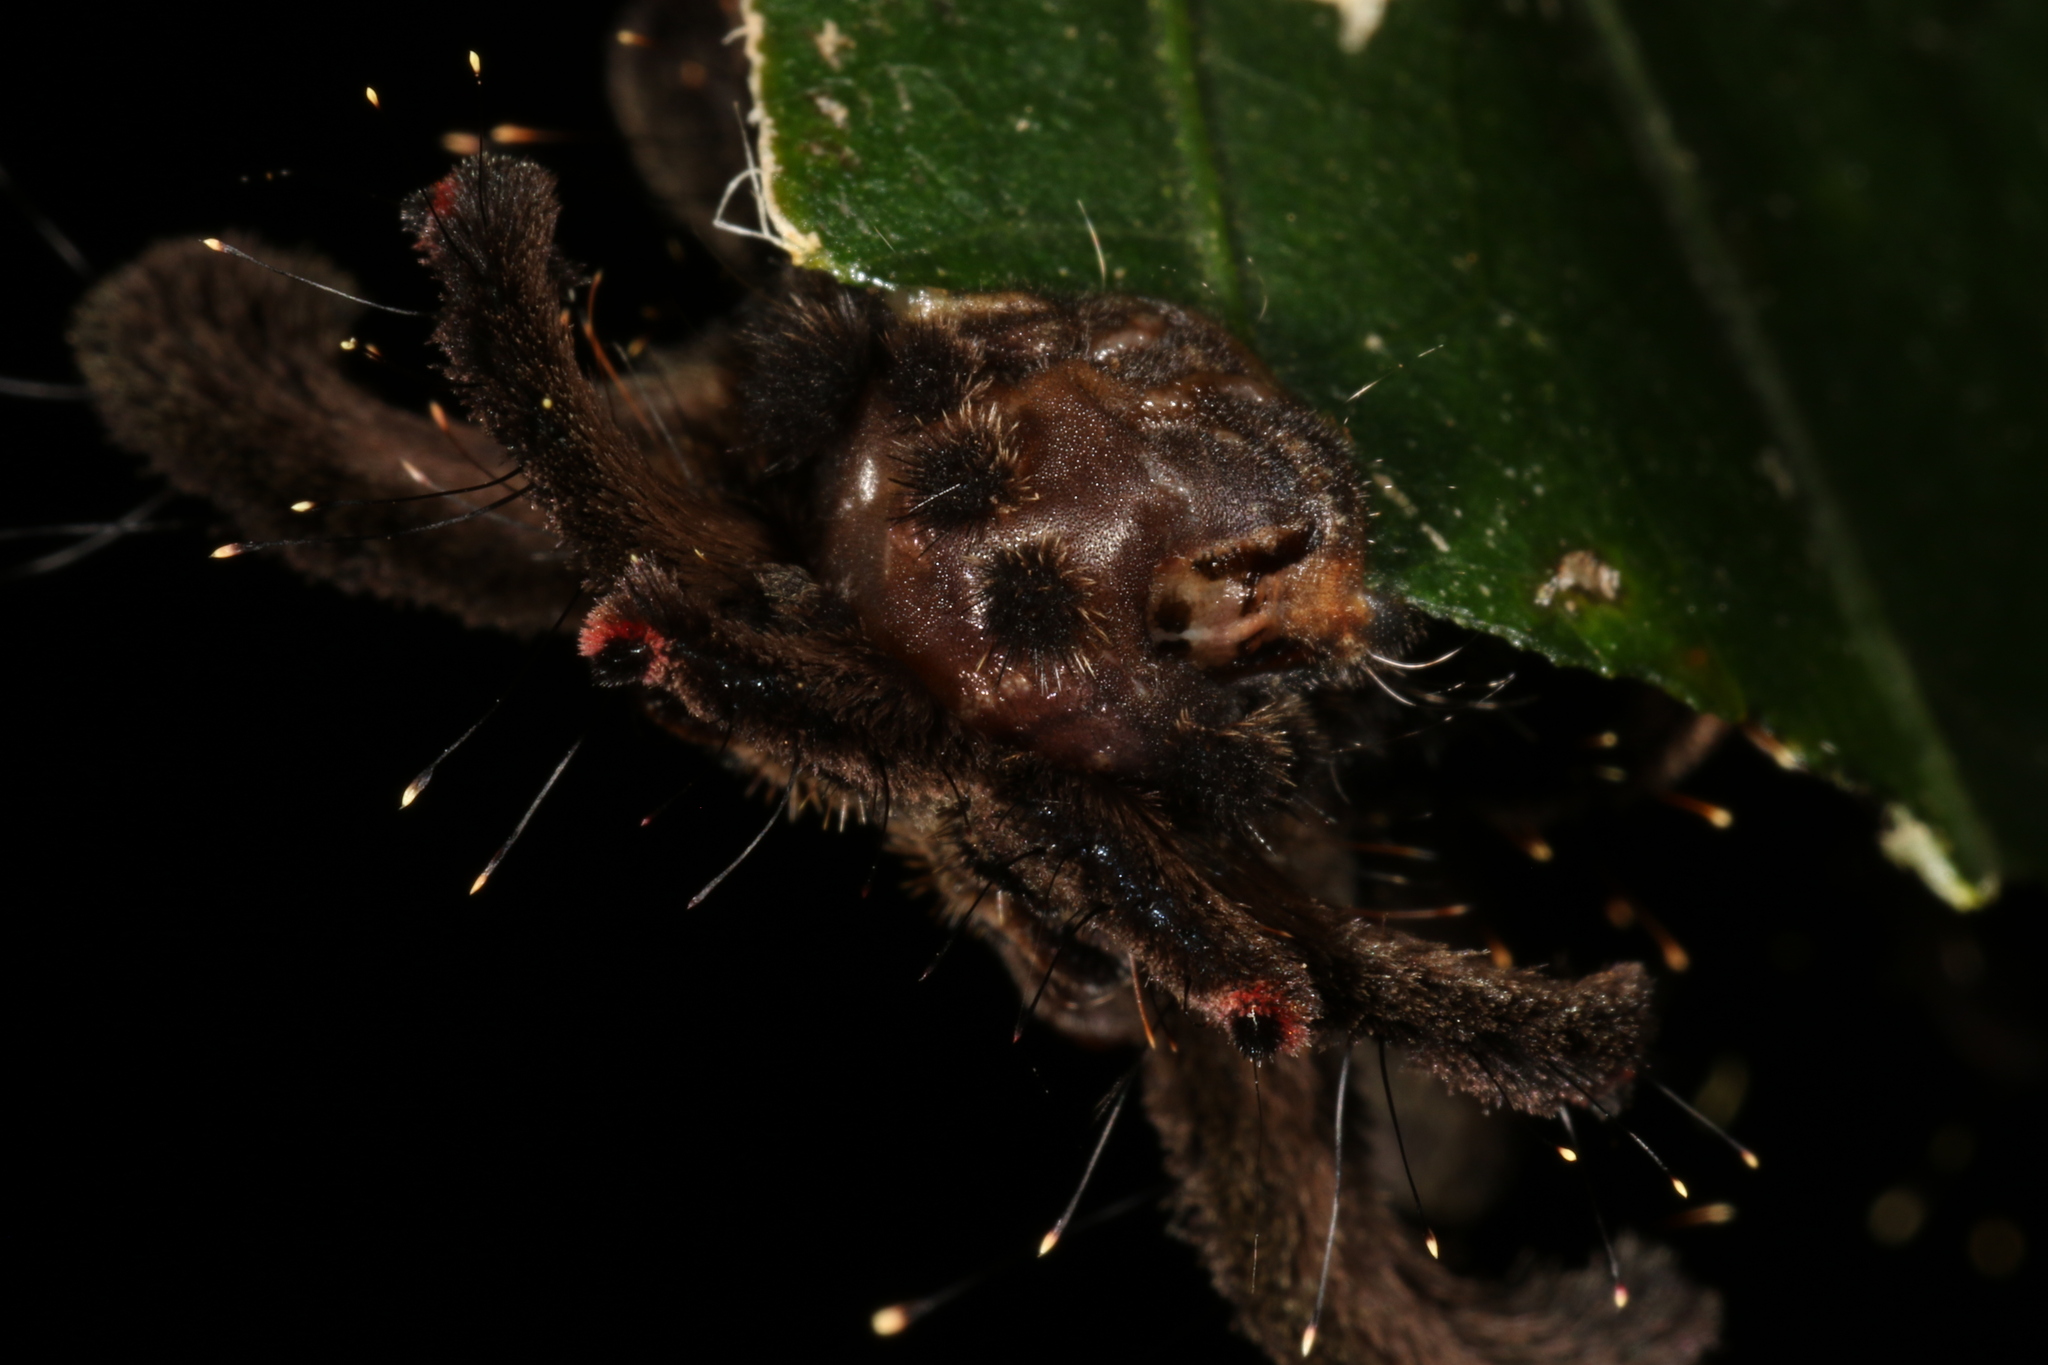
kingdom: Animalia
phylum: Arthropoda
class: Insecta
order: Lepidoptera
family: Limacodidae
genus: Phobetron
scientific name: Phobetron hipparchia
